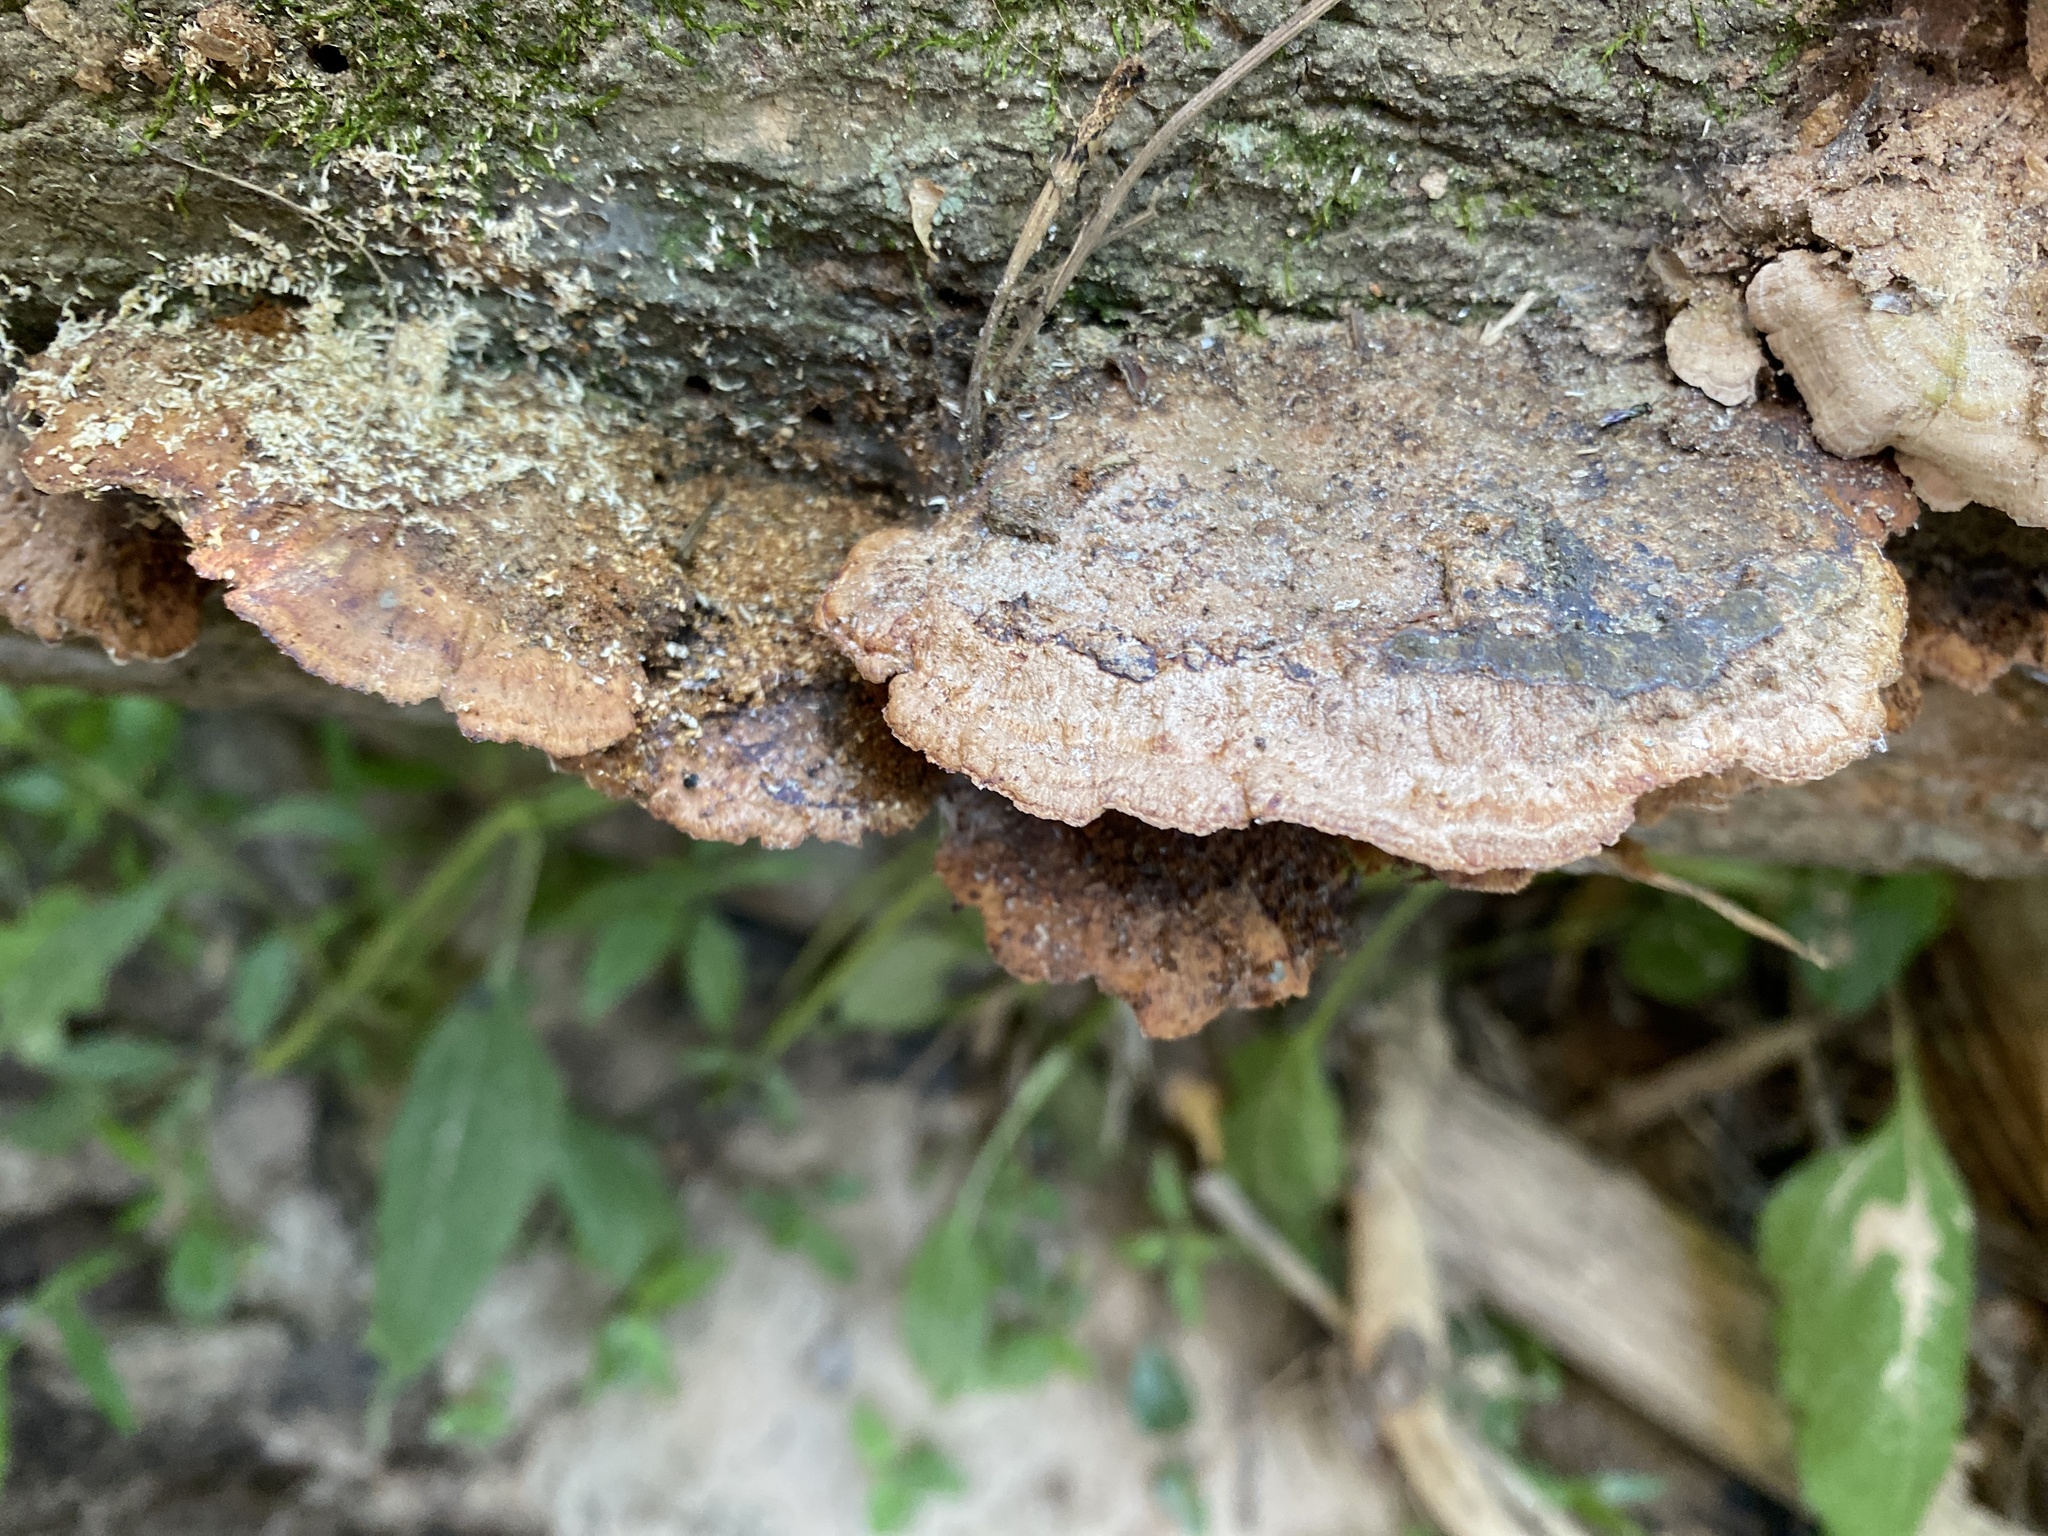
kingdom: Fungi
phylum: Basidiomycota
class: Agaricomycetes
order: Hymenochaetales
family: Hymenochaetaceae
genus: Phellinus
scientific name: Phellinus gilvus
